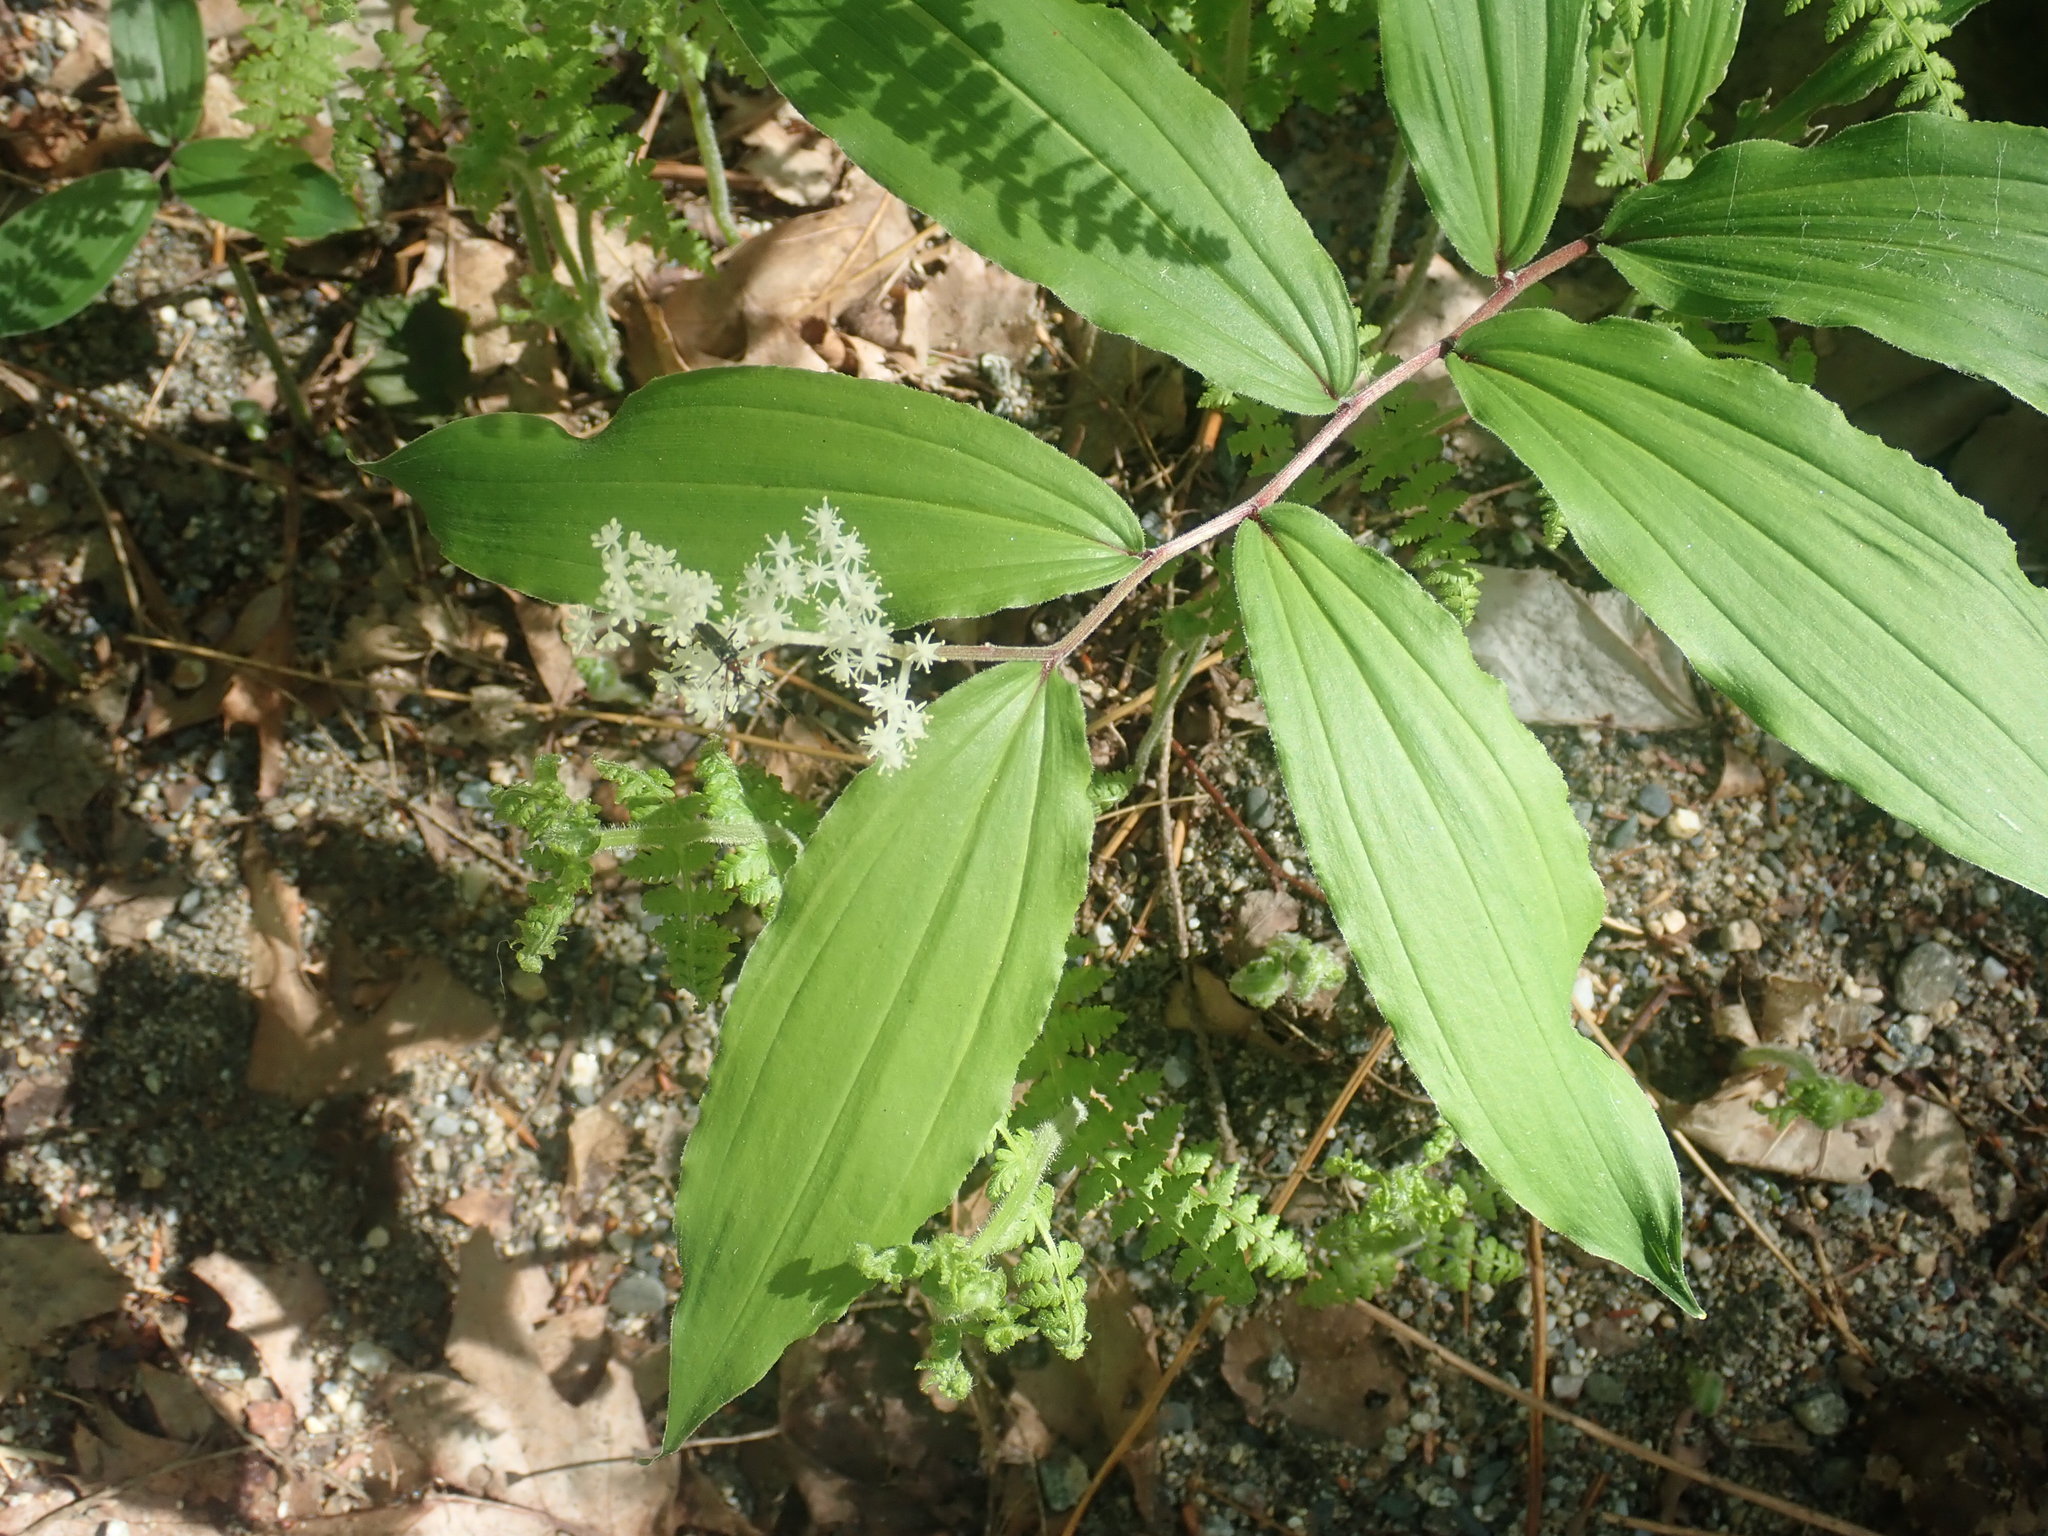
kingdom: Plantae
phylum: Tracheophyta
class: Liliopsida
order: Asparagales
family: Asparagaceae
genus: Maianthemum
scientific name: Maianthemum racemosum
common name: False spikenard
